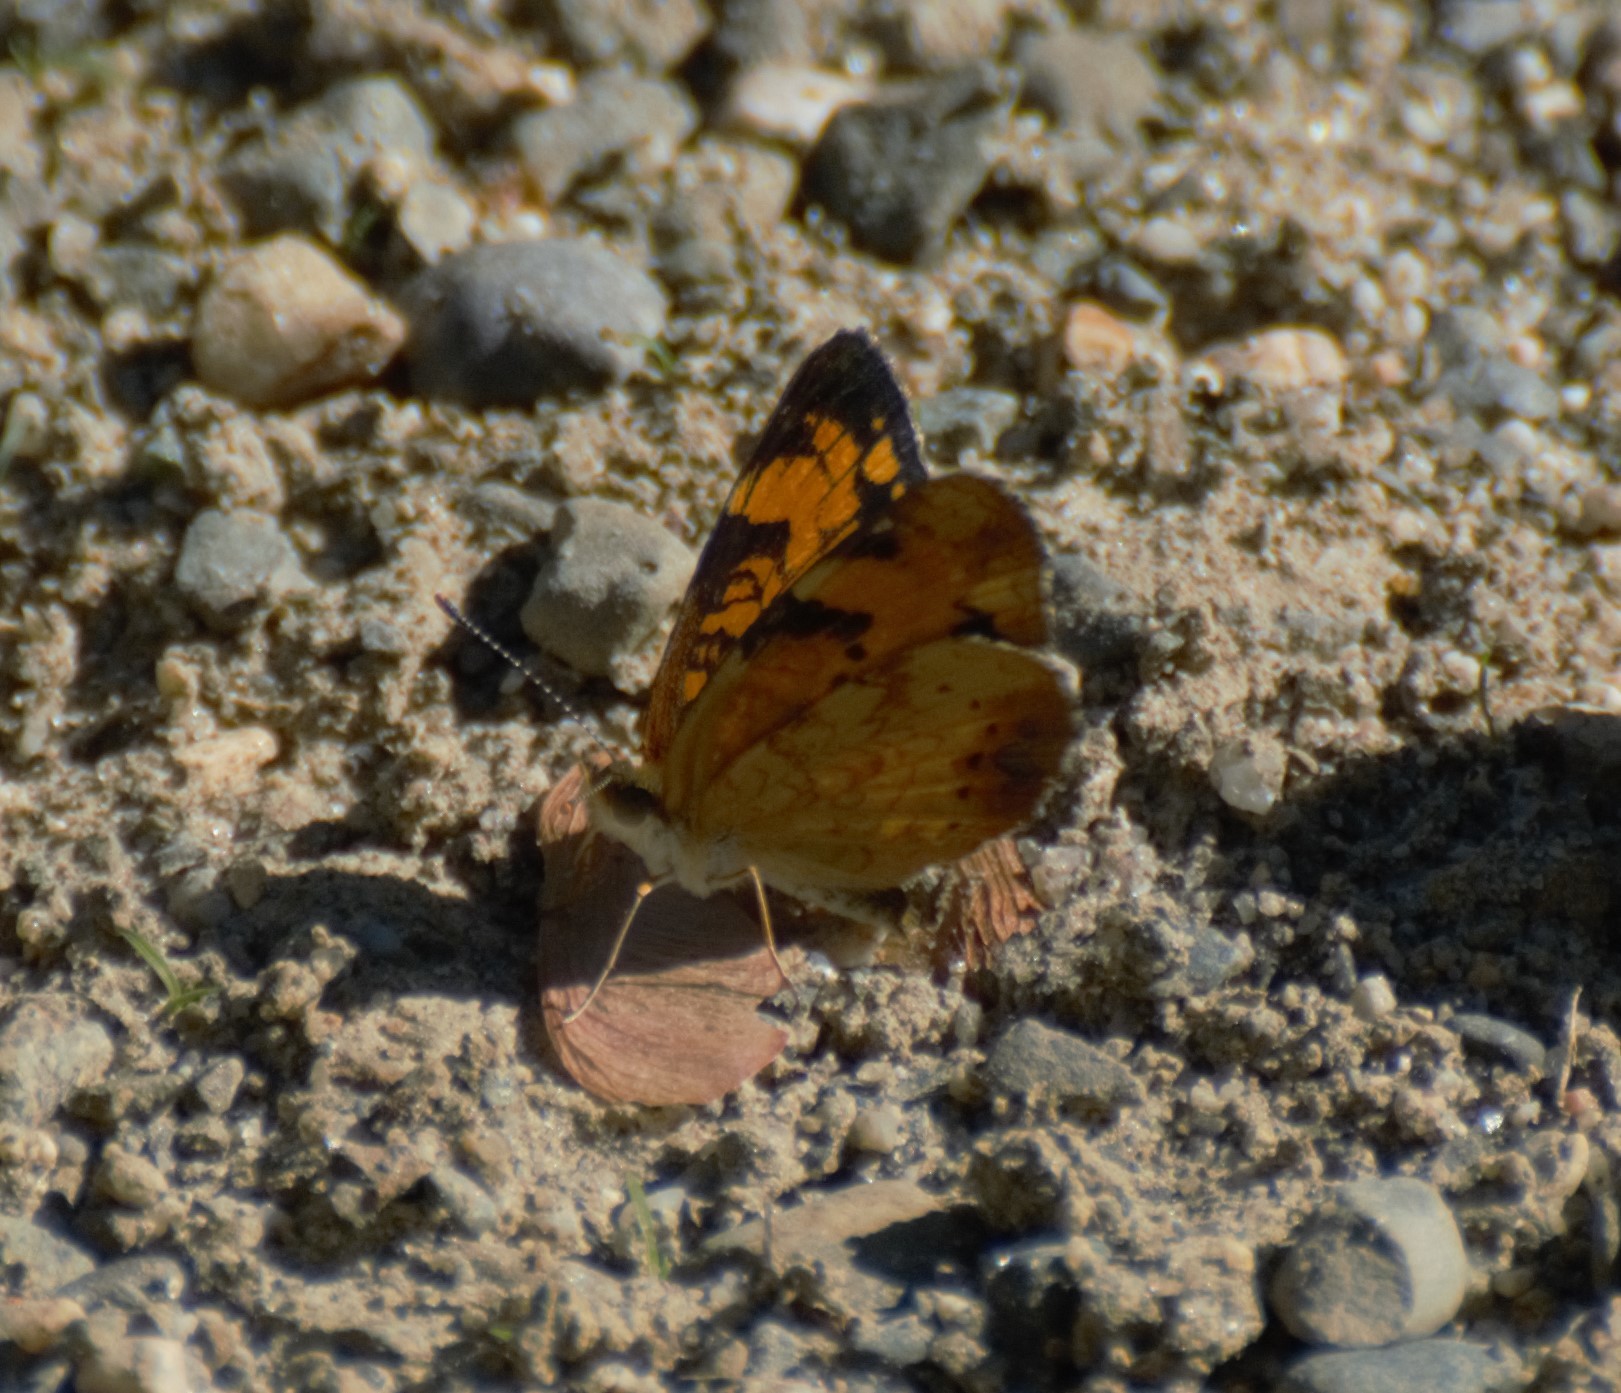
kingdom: Animalia
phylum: Arthropoda
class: Insecta
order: Lepidoptera
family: Nymphalidae
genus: Phyciodes
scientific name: Phyciodes tharos
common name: Pearl crescent
